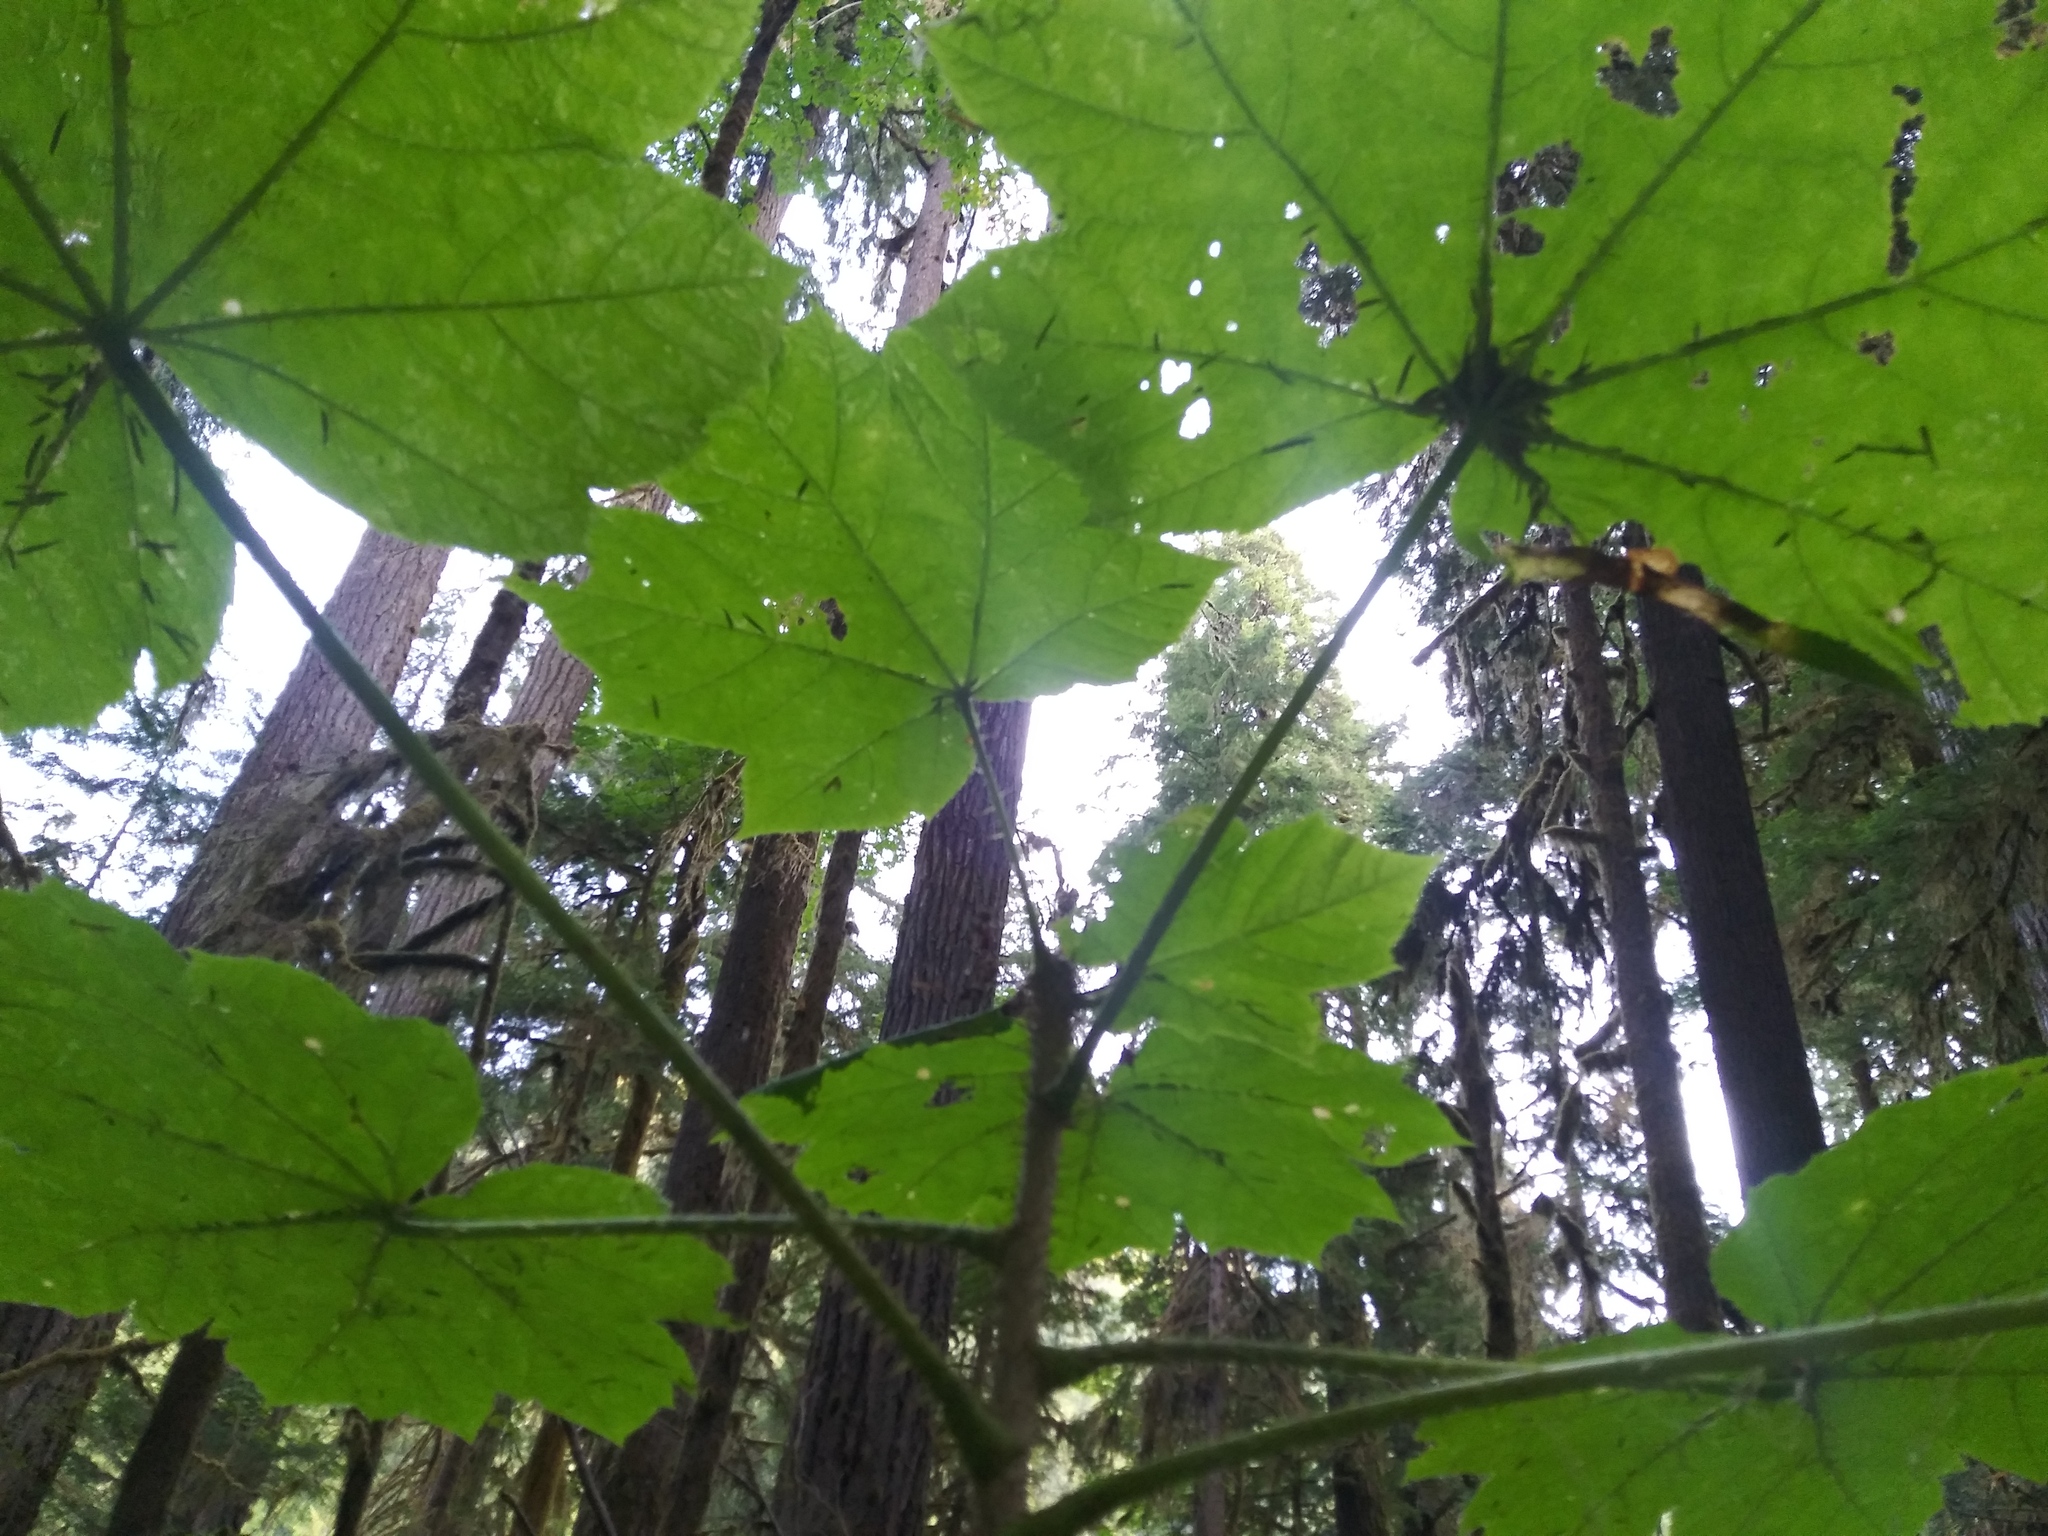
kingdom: Plantae
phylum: Tracheophyta
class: Magnoliopsida
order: Apiales
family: Araliaceae
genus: Oplopanax
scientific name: Oplopanax horridus
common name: Devil's walking-stick
